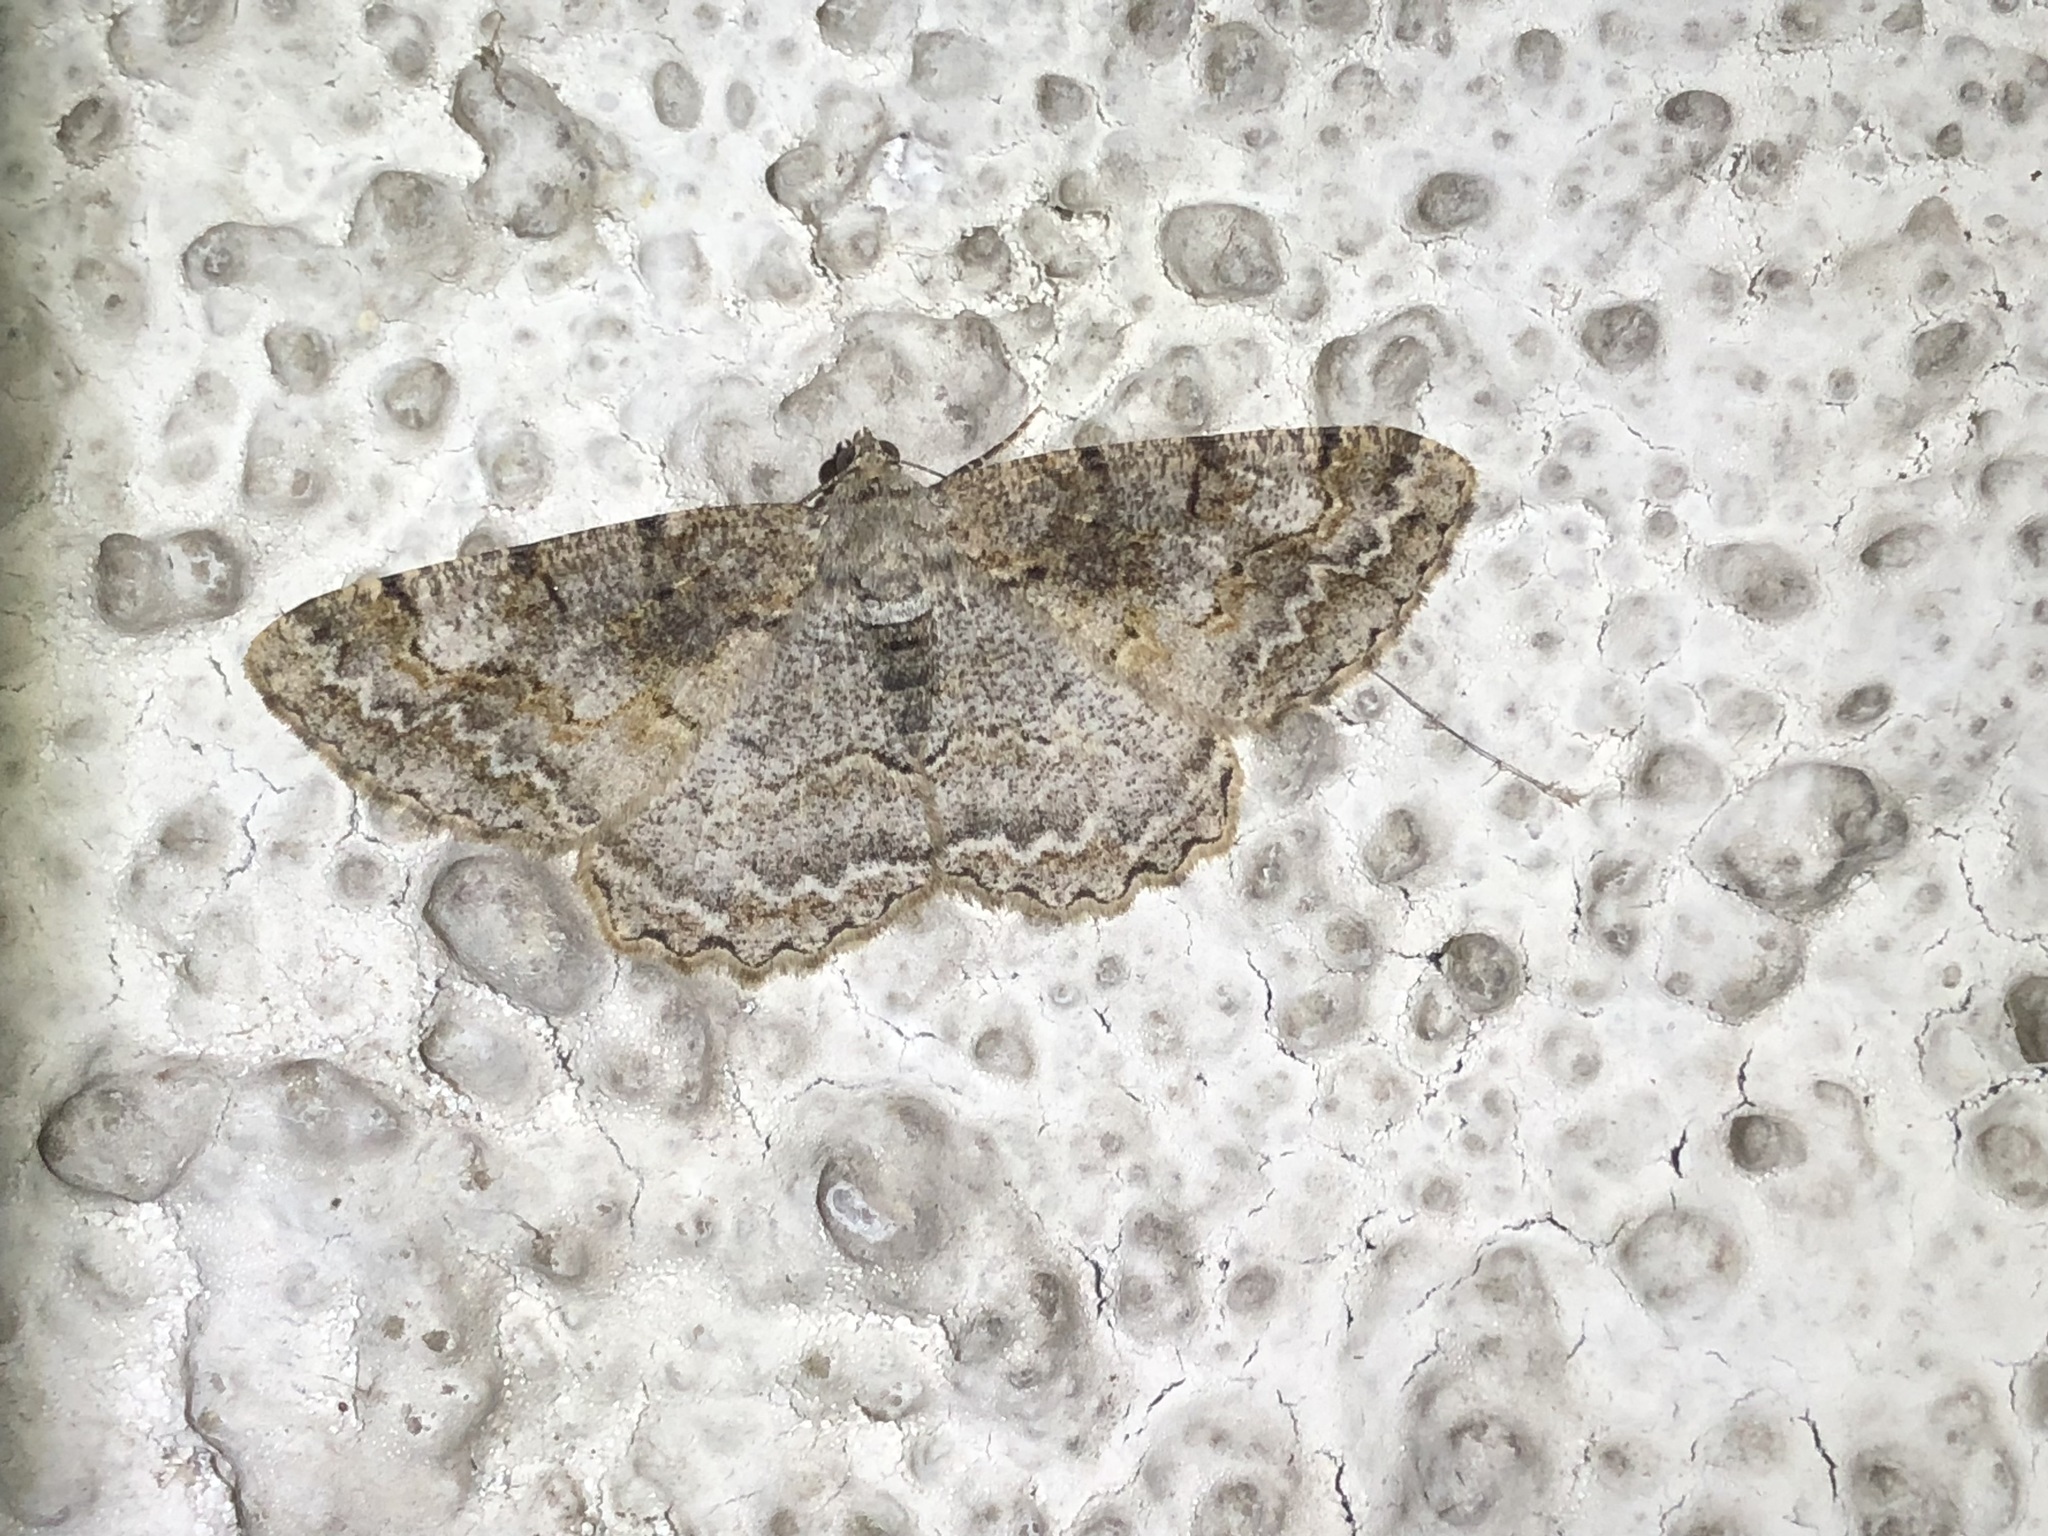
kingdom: Animalia
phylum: Arthropoda
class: Insecta
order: Lepidoptera
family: Geometridae
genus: Alcis
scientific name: Alcis repandata
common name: Mottled beauty
